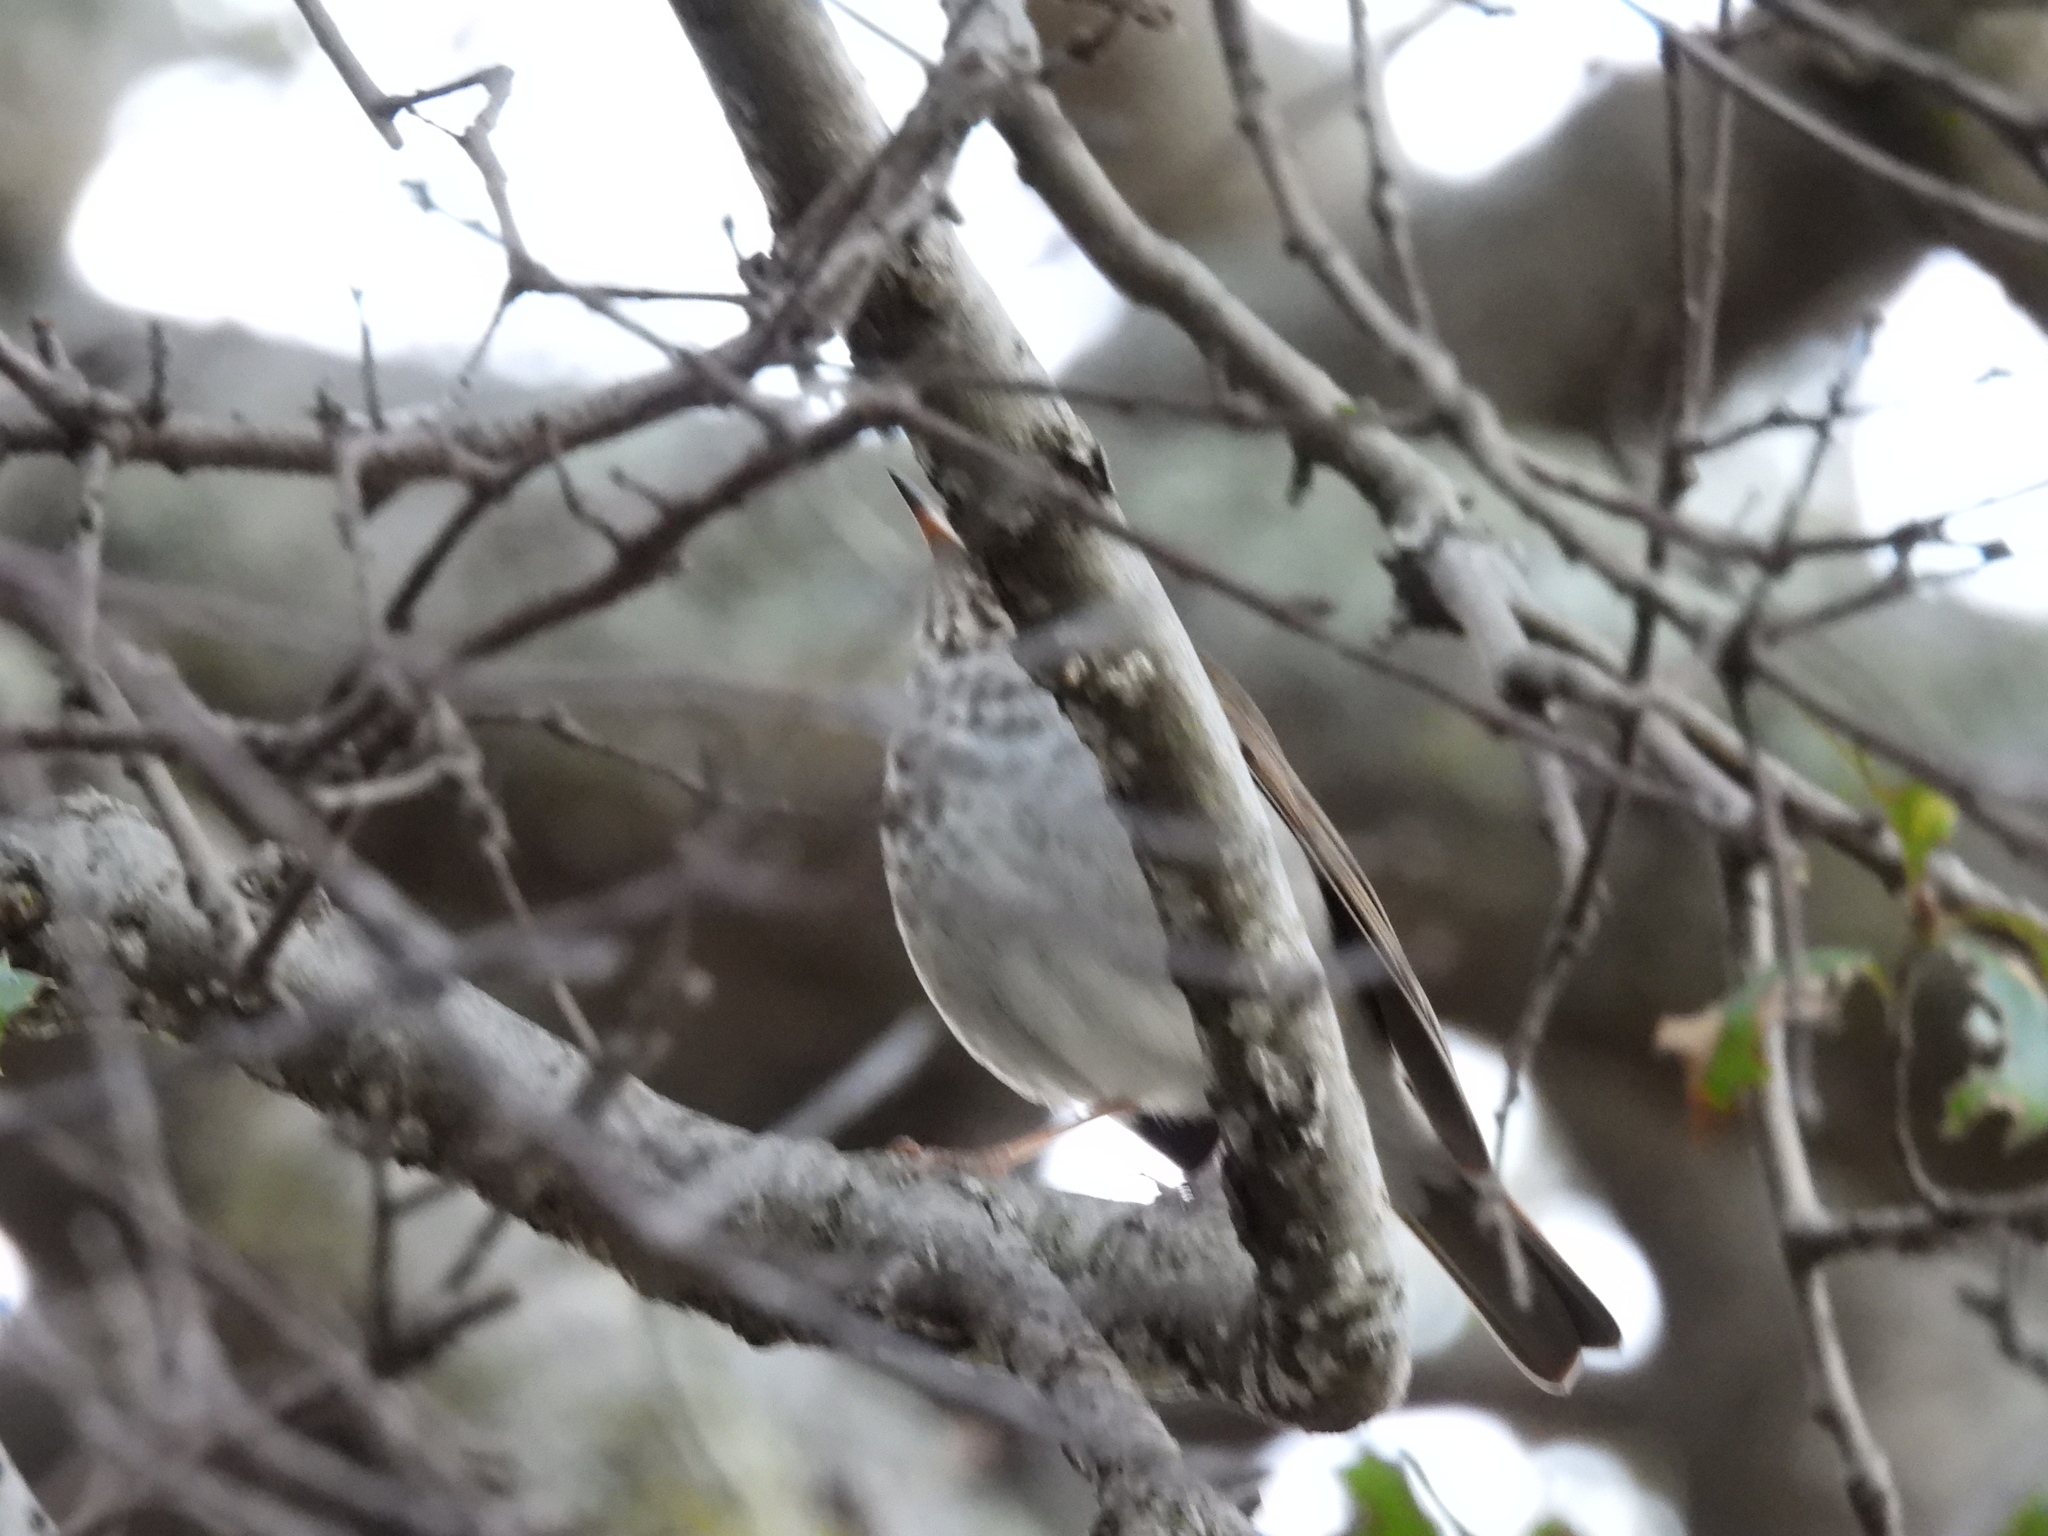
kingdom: Animalia
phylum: Chordata
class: Aves
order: Passeriformes
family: Turdidae
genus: Catharus
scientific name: Catharus guttatus
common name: Hermit thrush
